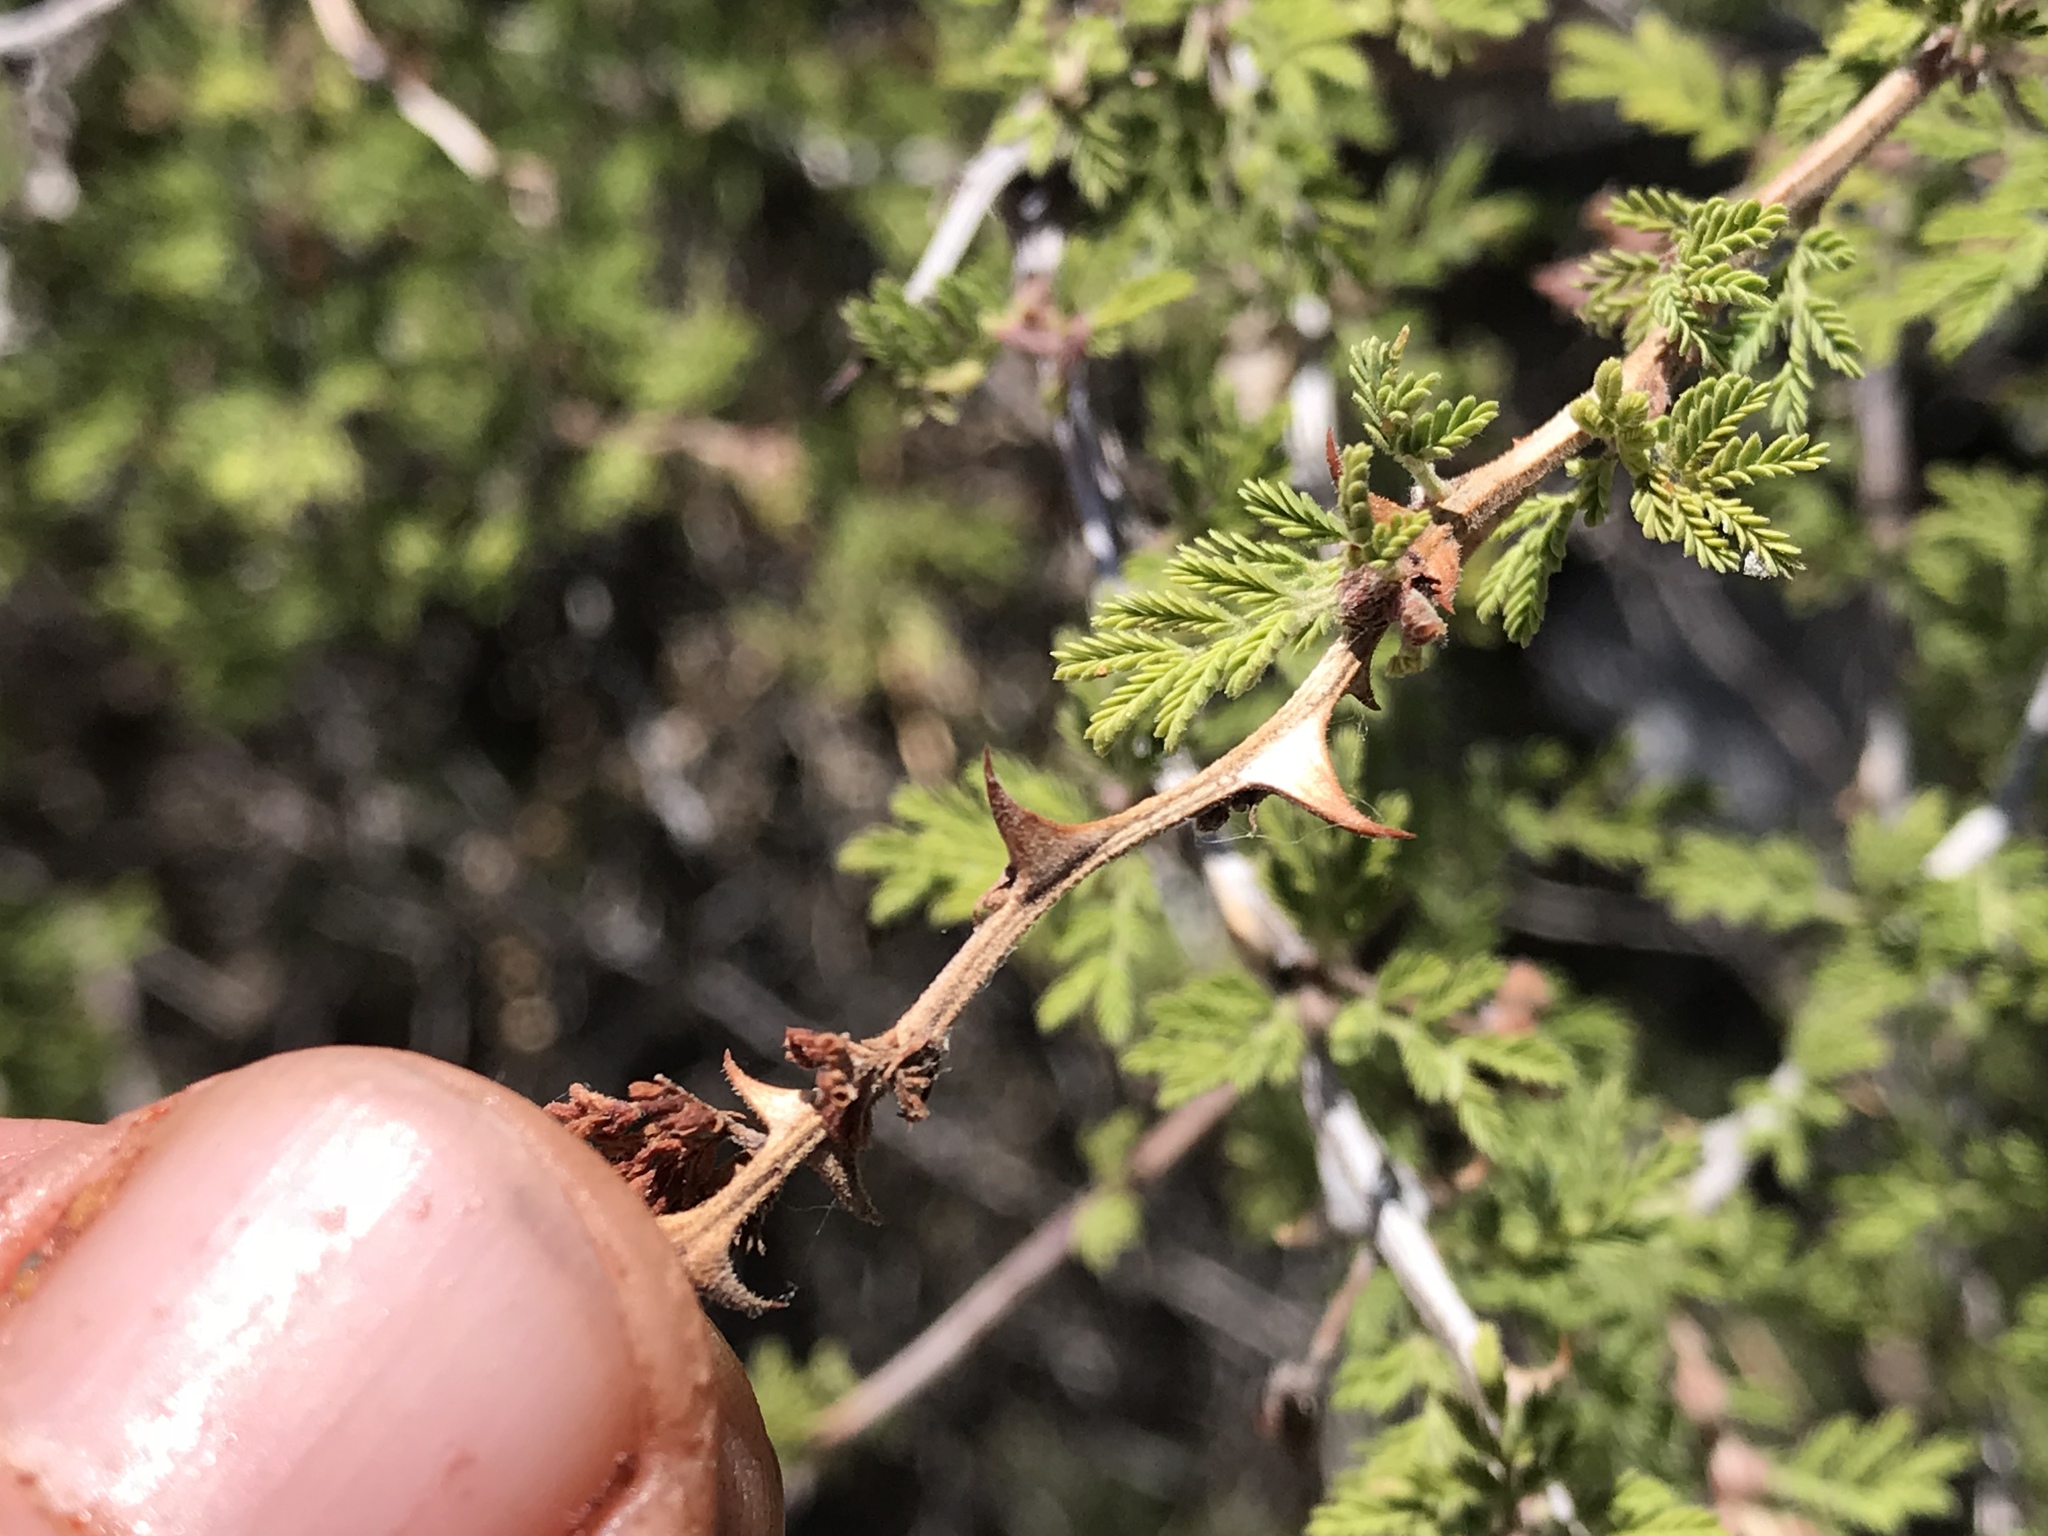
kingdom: Plantae
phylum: Tracheophyta
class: Magnoliopsida
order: Fabales
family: Fabaceae
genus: Mimosa
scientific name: Mimosa aculeaticarpa
